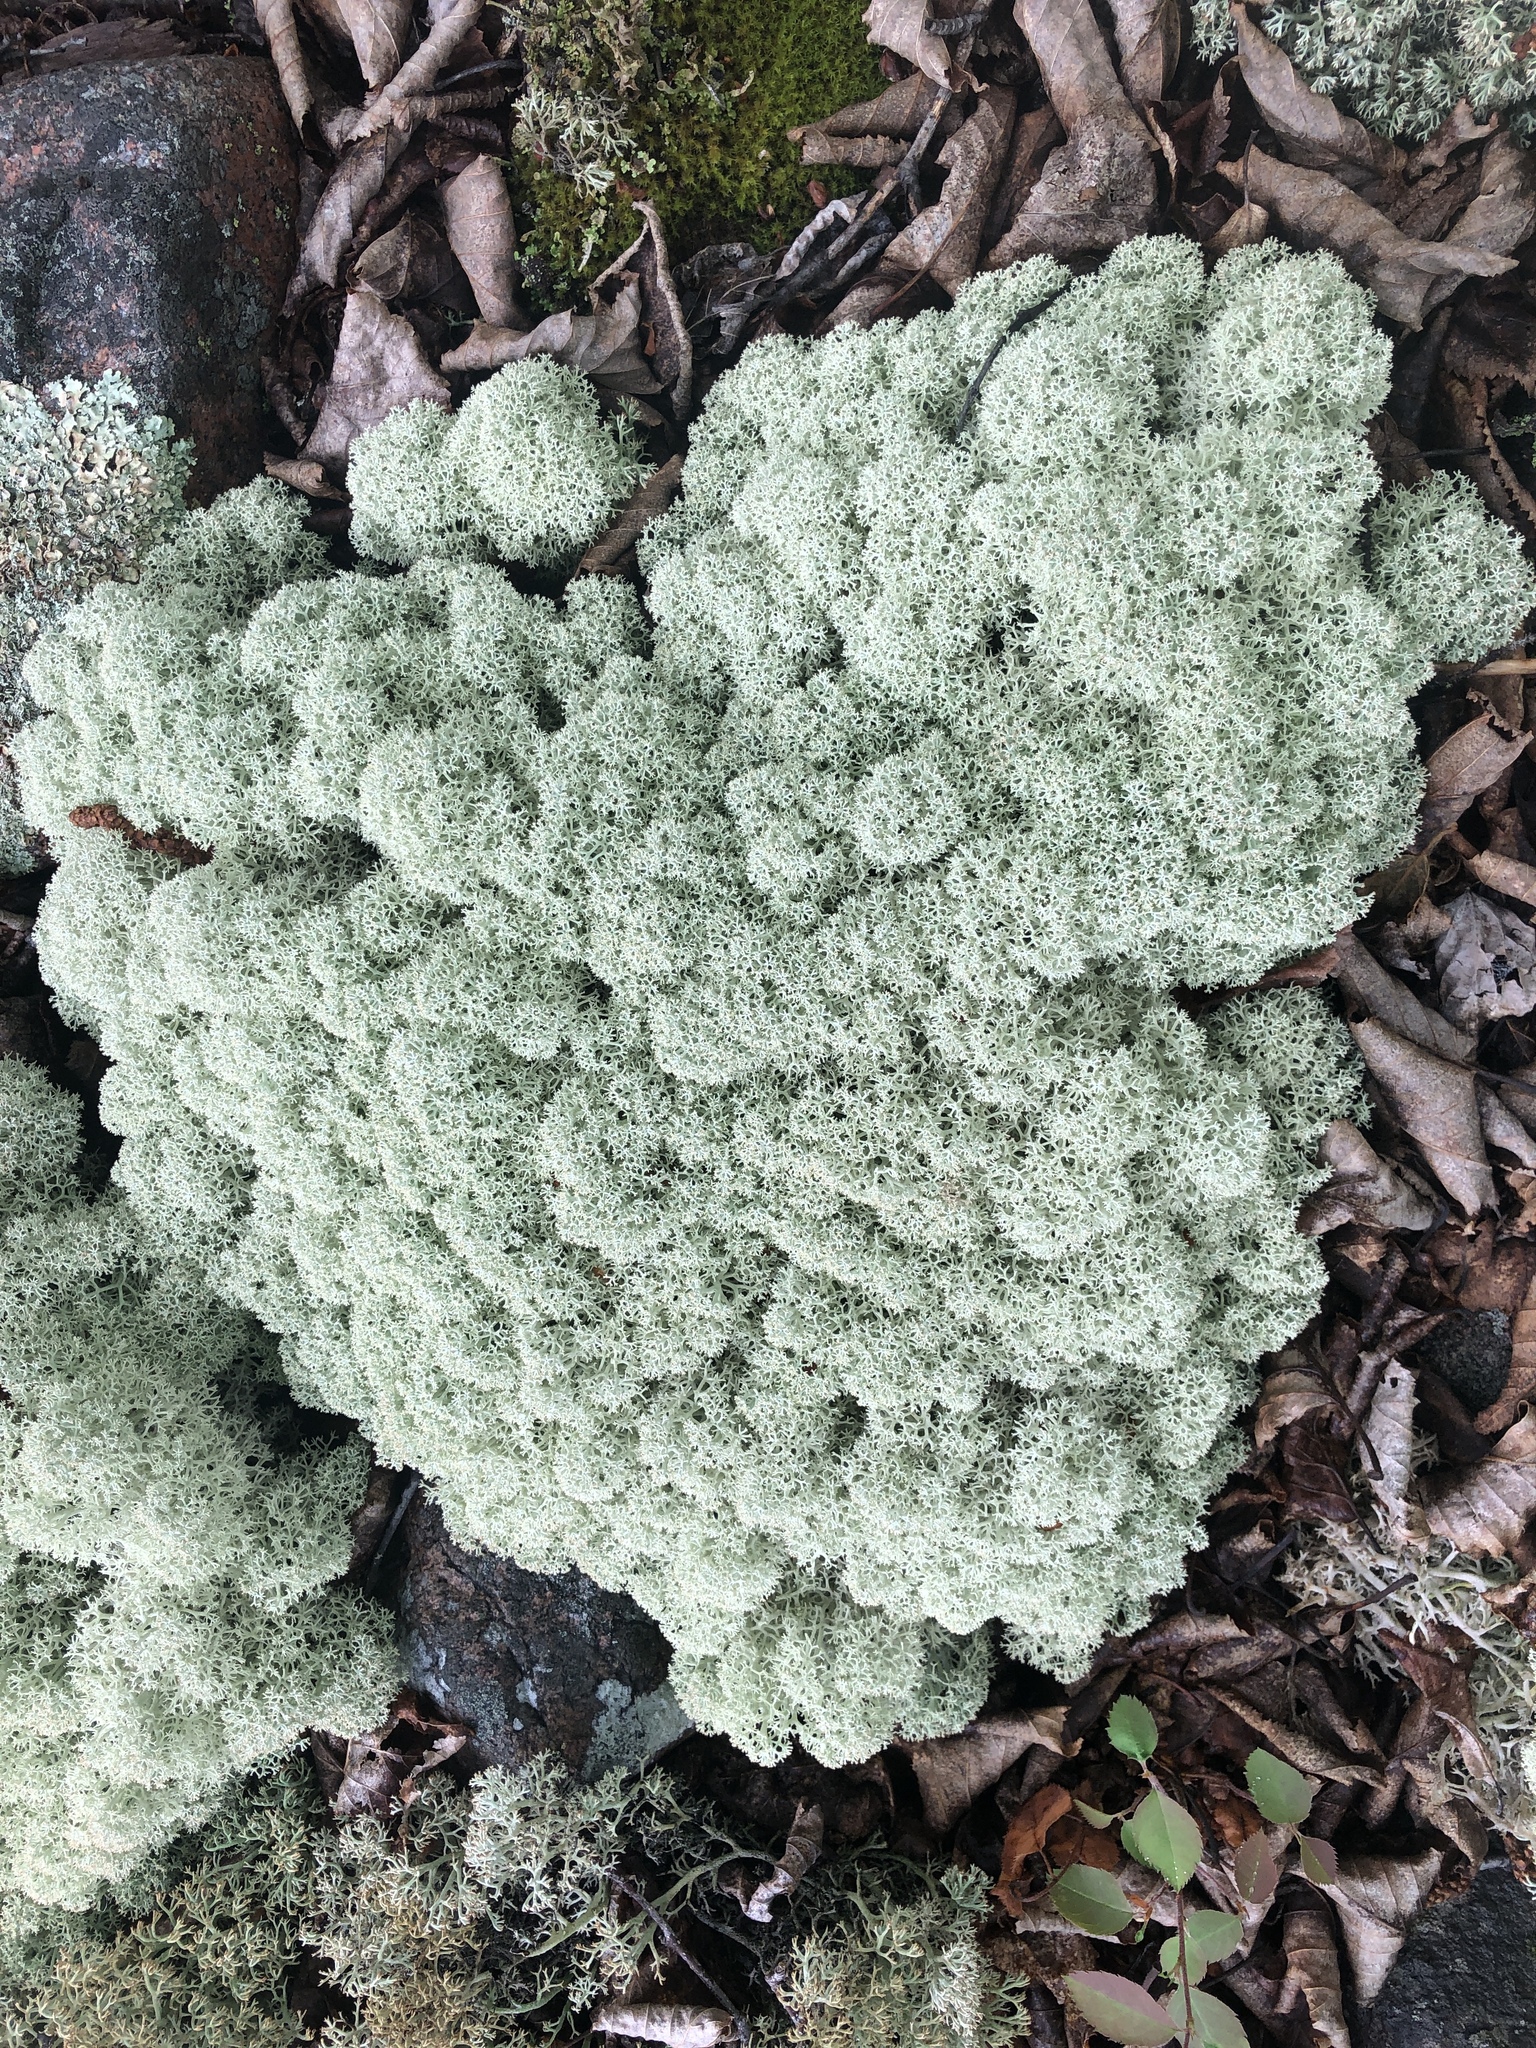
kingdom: Fungi
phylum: Ascomycota
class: Lecanoromycetes
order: Lecanorales
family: Cladoniaceae
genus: Cladonia
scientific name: Cladonia stellaris
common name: Star-tipped reindeer lichen
